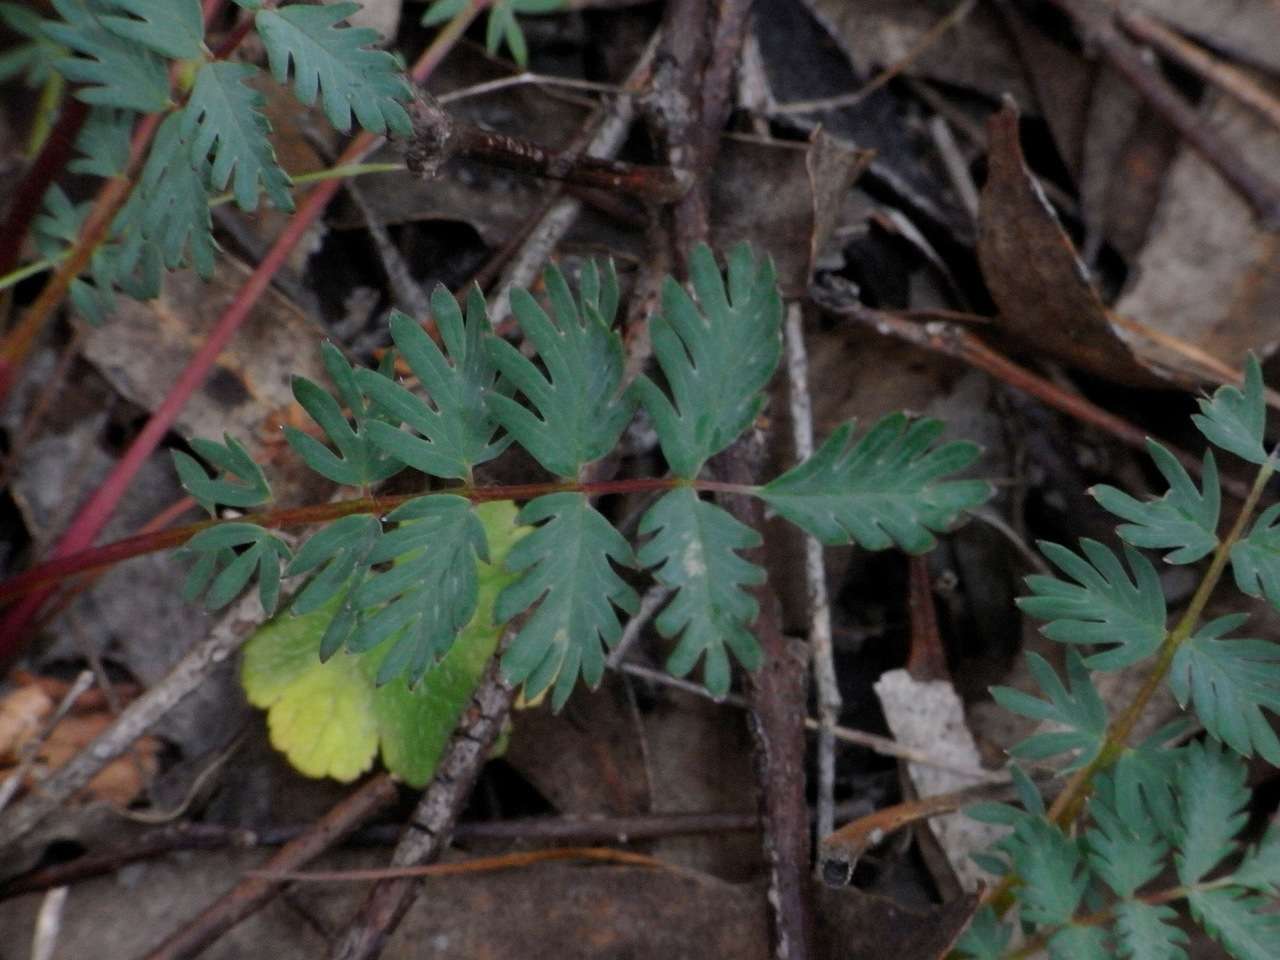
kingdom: Plantae
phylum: Tracheophyta
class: Magnoliopsida
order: Rosales
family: Rosaceae
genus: Acaena
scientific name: Acaena echinata
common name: Sheepbur
